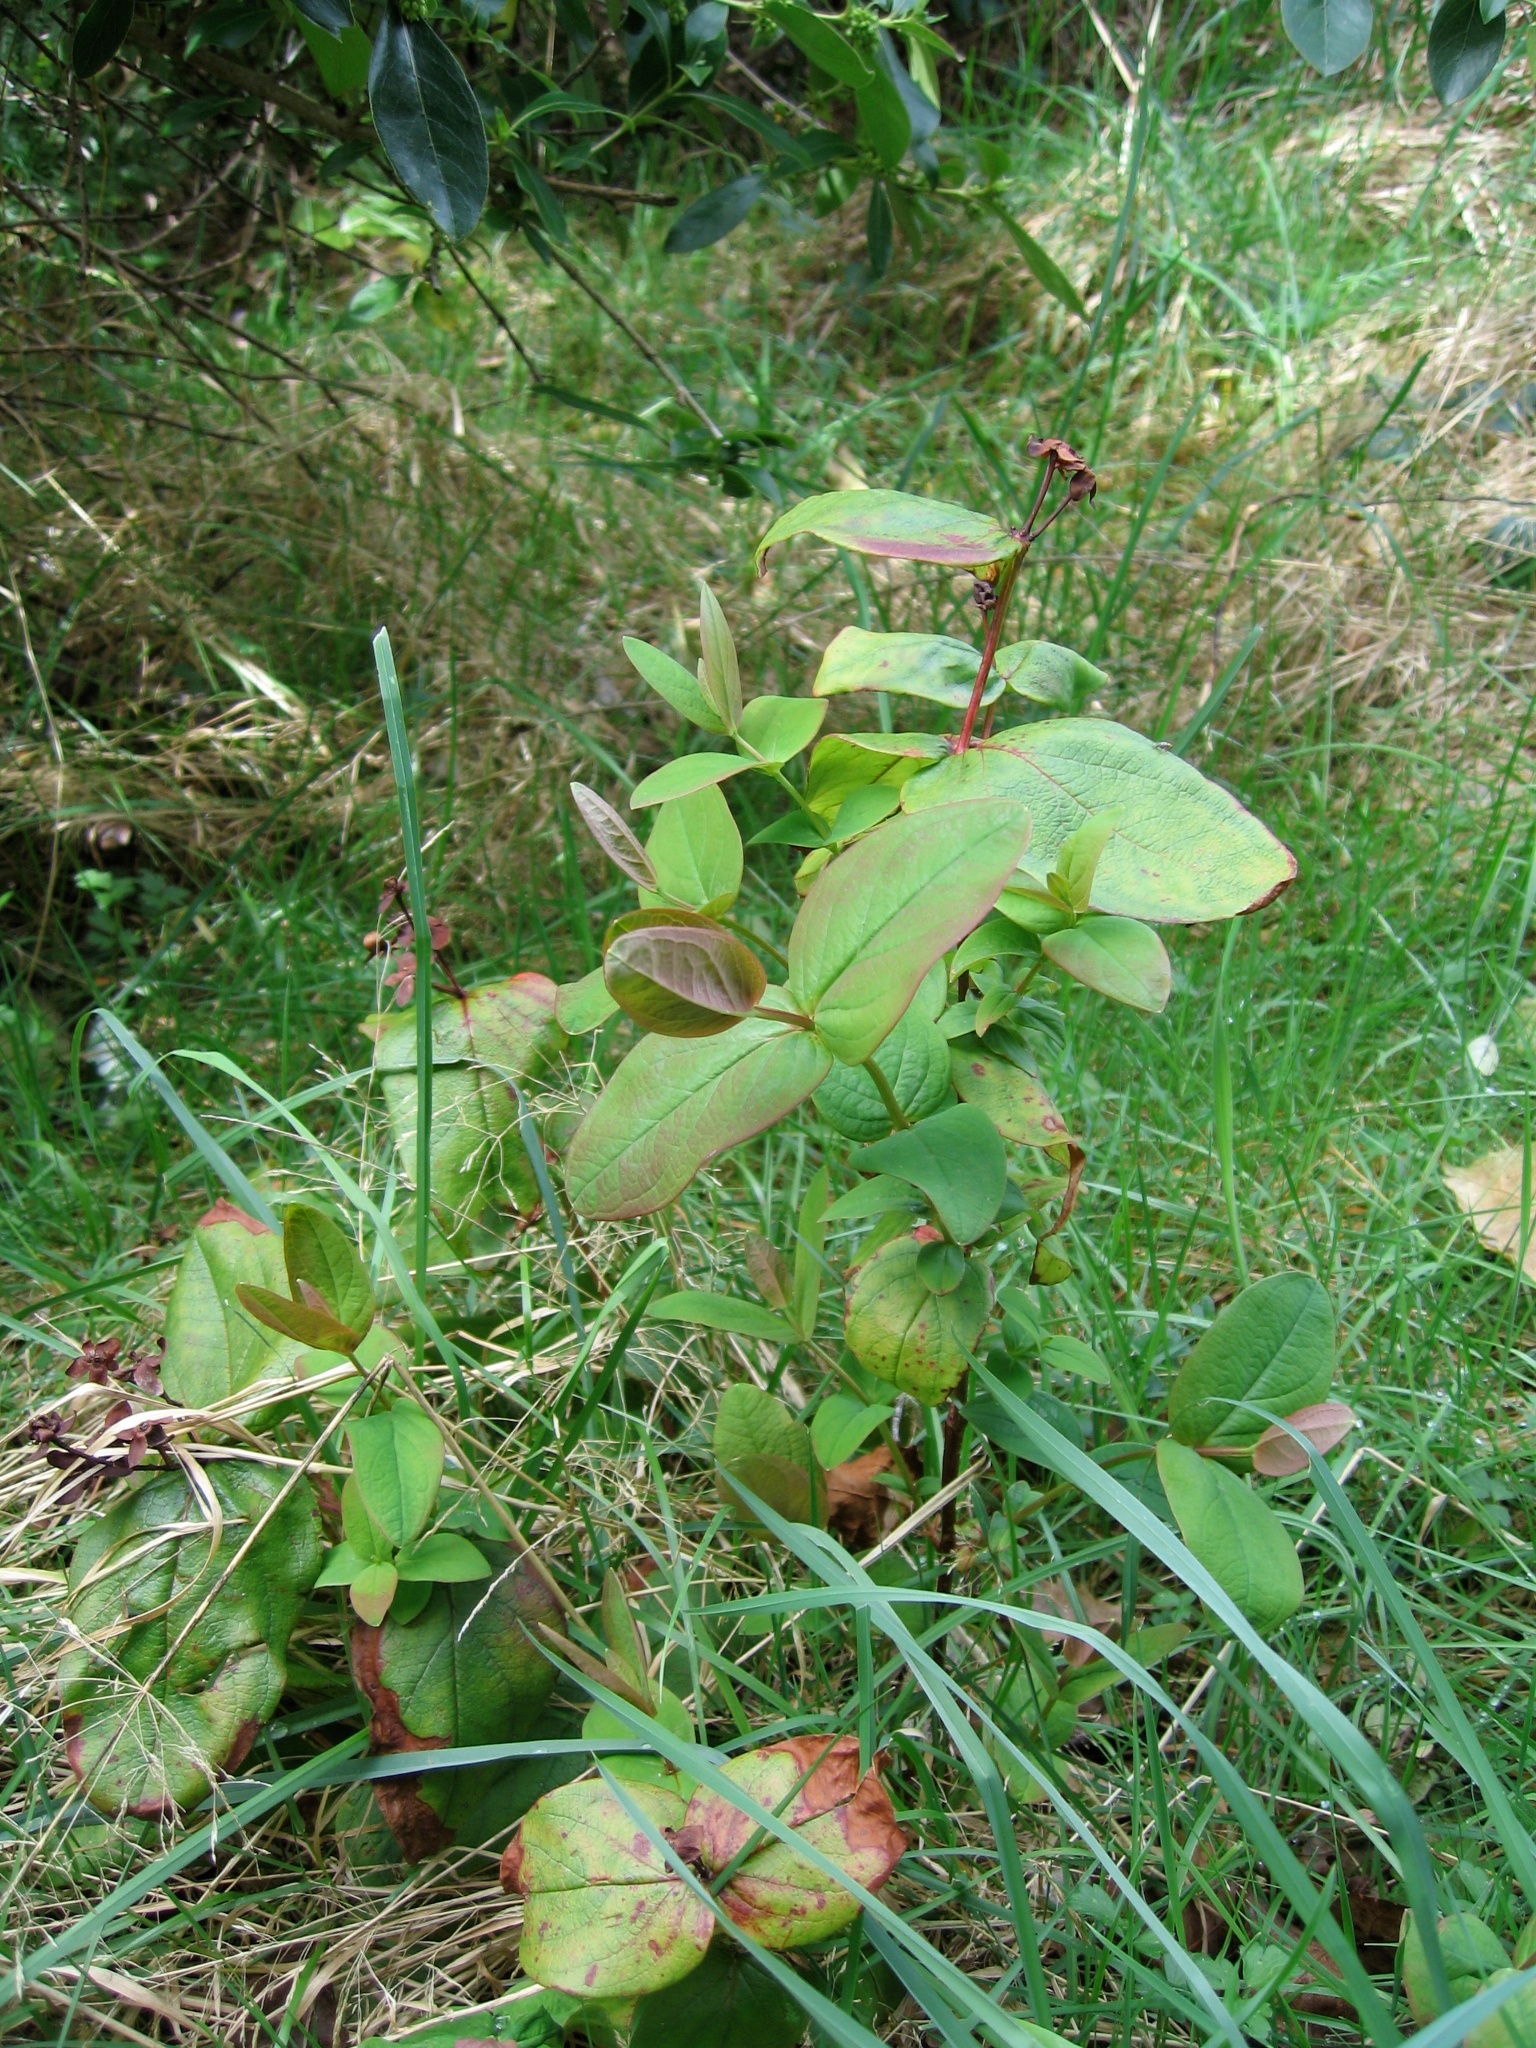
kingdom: Plantae
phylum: Tracheophyta
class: Magnoliopsida
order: Malpighiales
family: Hypericaceae
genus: Hypericum
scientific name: Hypericum androsaemum
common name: Sweet-amber
